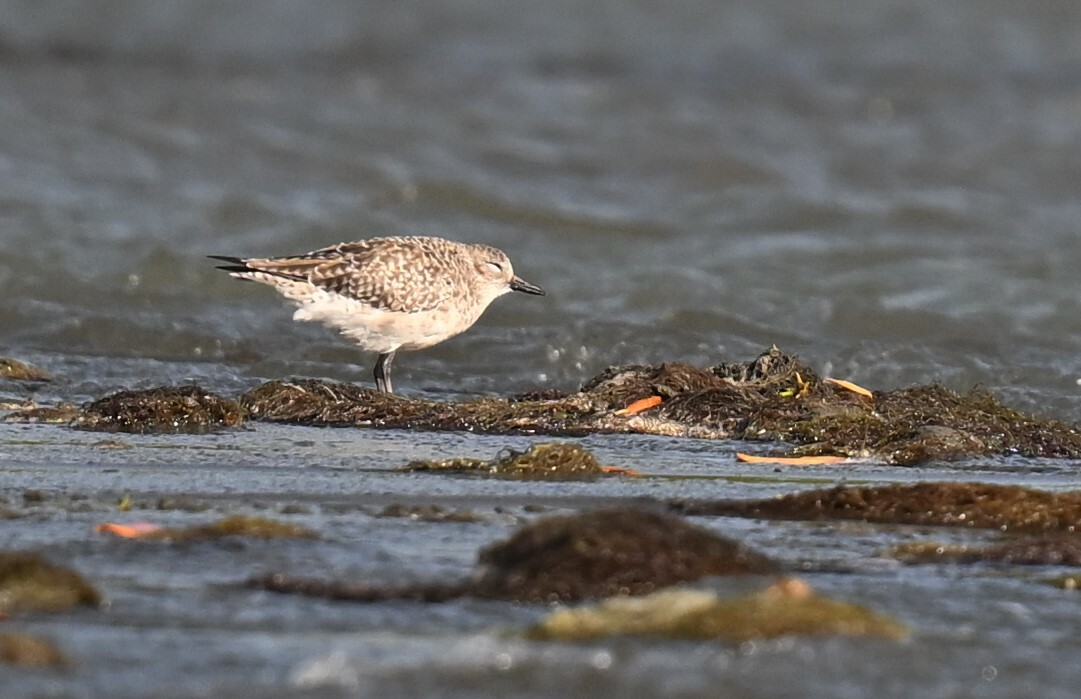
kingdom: Animalia
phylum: Chordata
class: Aves
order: Charadriiformes
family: Charadriidae
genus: Pluvialis
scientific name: Pluvialis squatarola
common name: Grey plover
